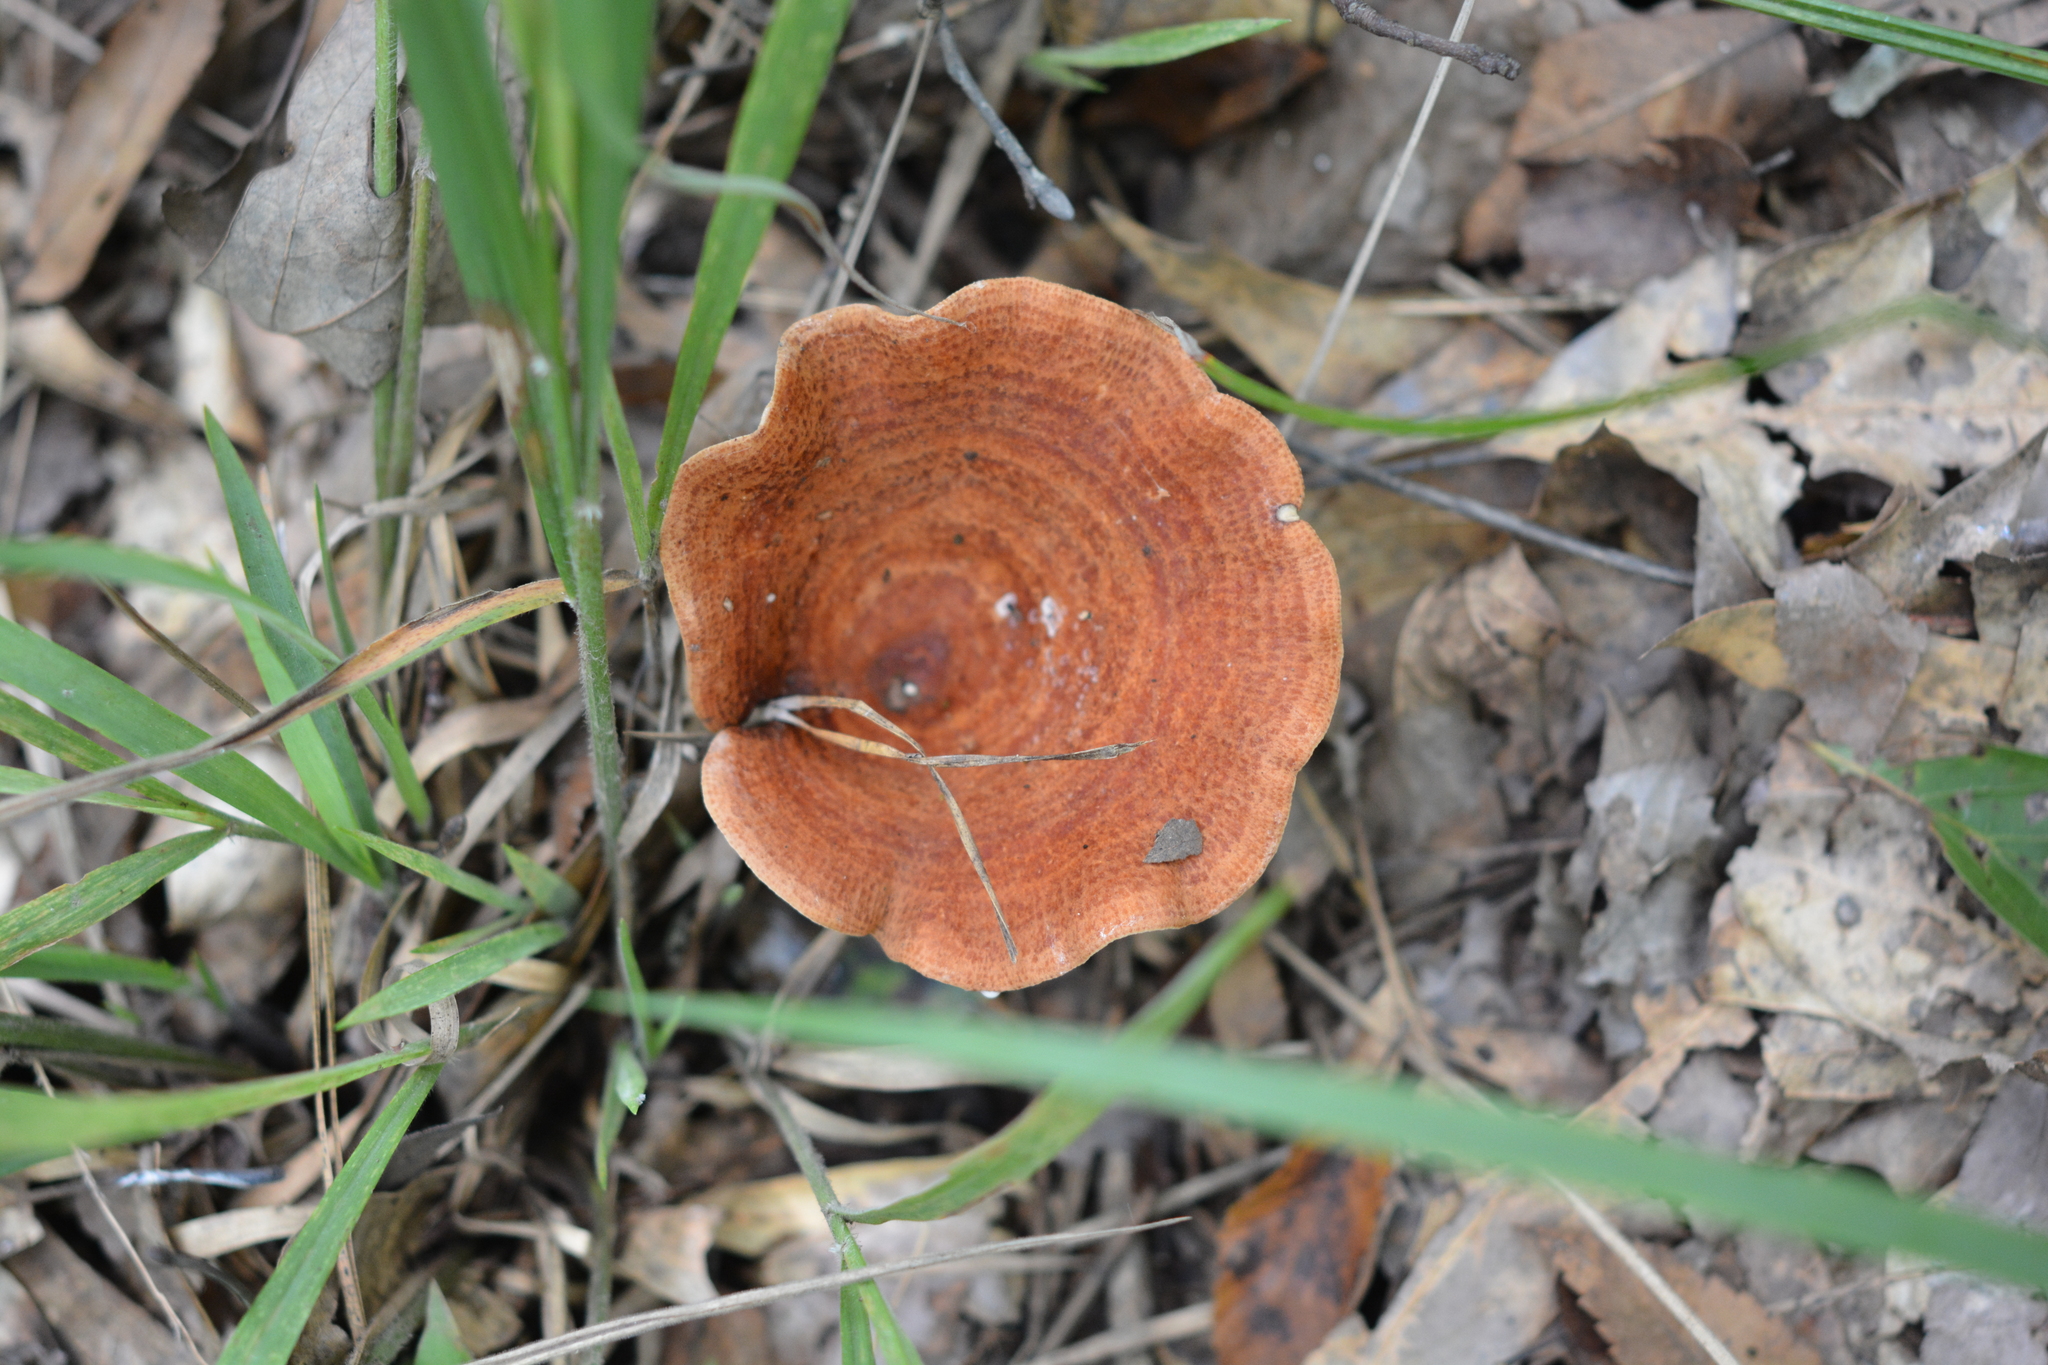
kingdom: Fungi
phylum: Basidiomycota
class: Agaricomycetes
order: Russulales
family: Russulaceae
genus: Lactarius
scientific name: Lactarius peckii
